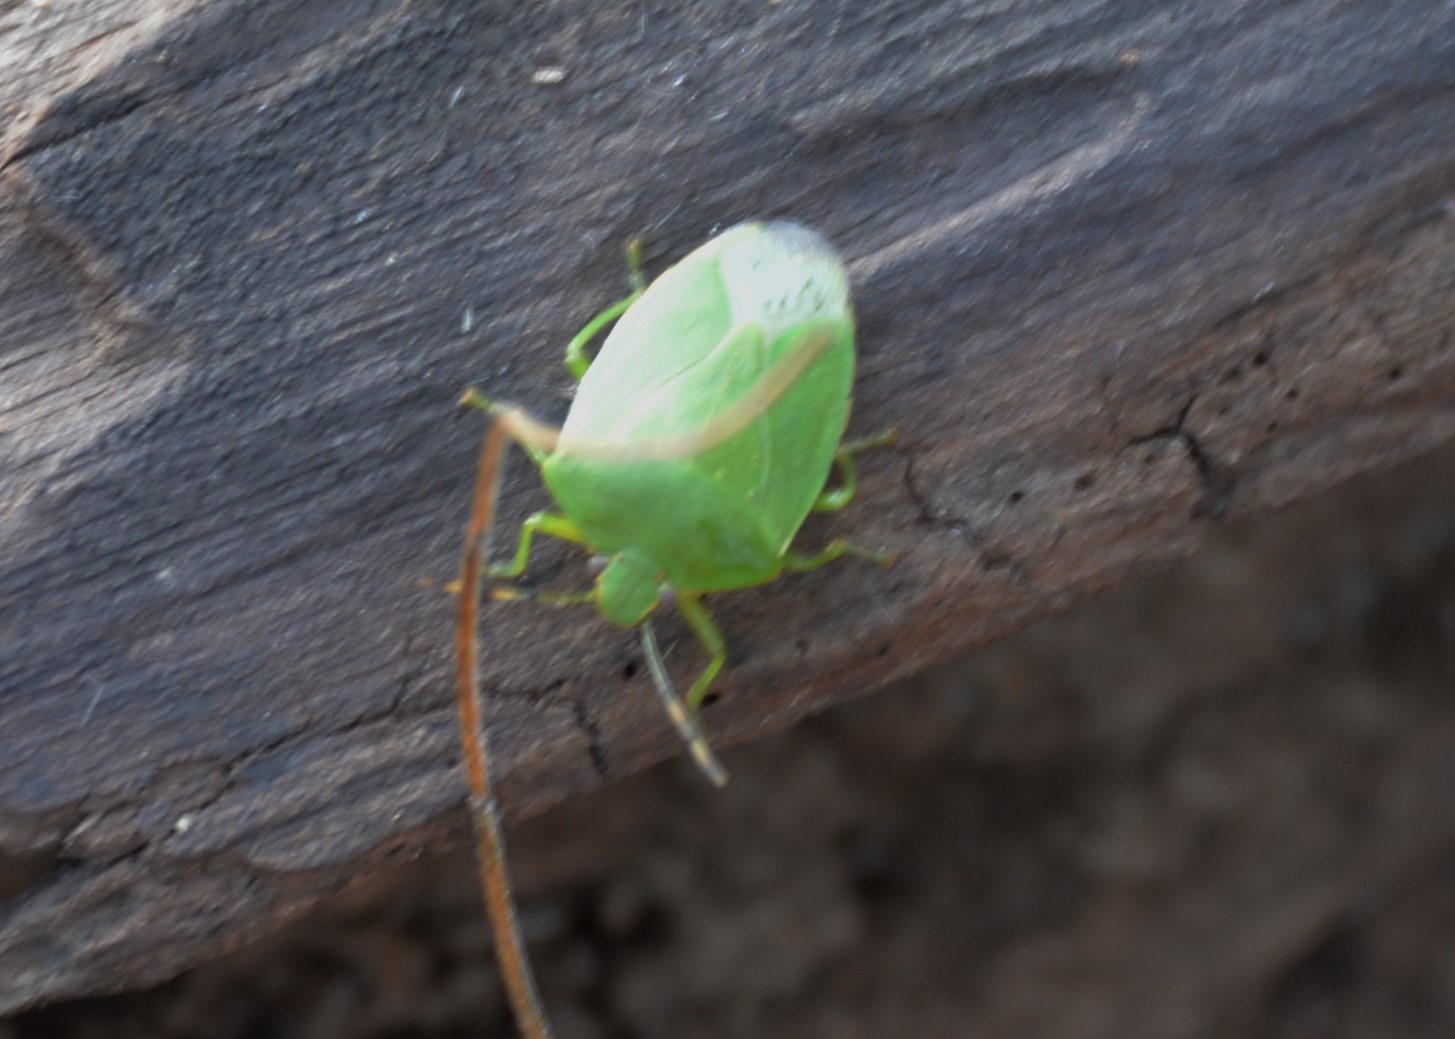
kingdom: Animalia
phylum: Arthropoda
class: Insecta
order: Hemiptera
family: Pentatomidae
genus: Chinavia
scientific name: Chinavia hilaris
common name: Green stink bug
